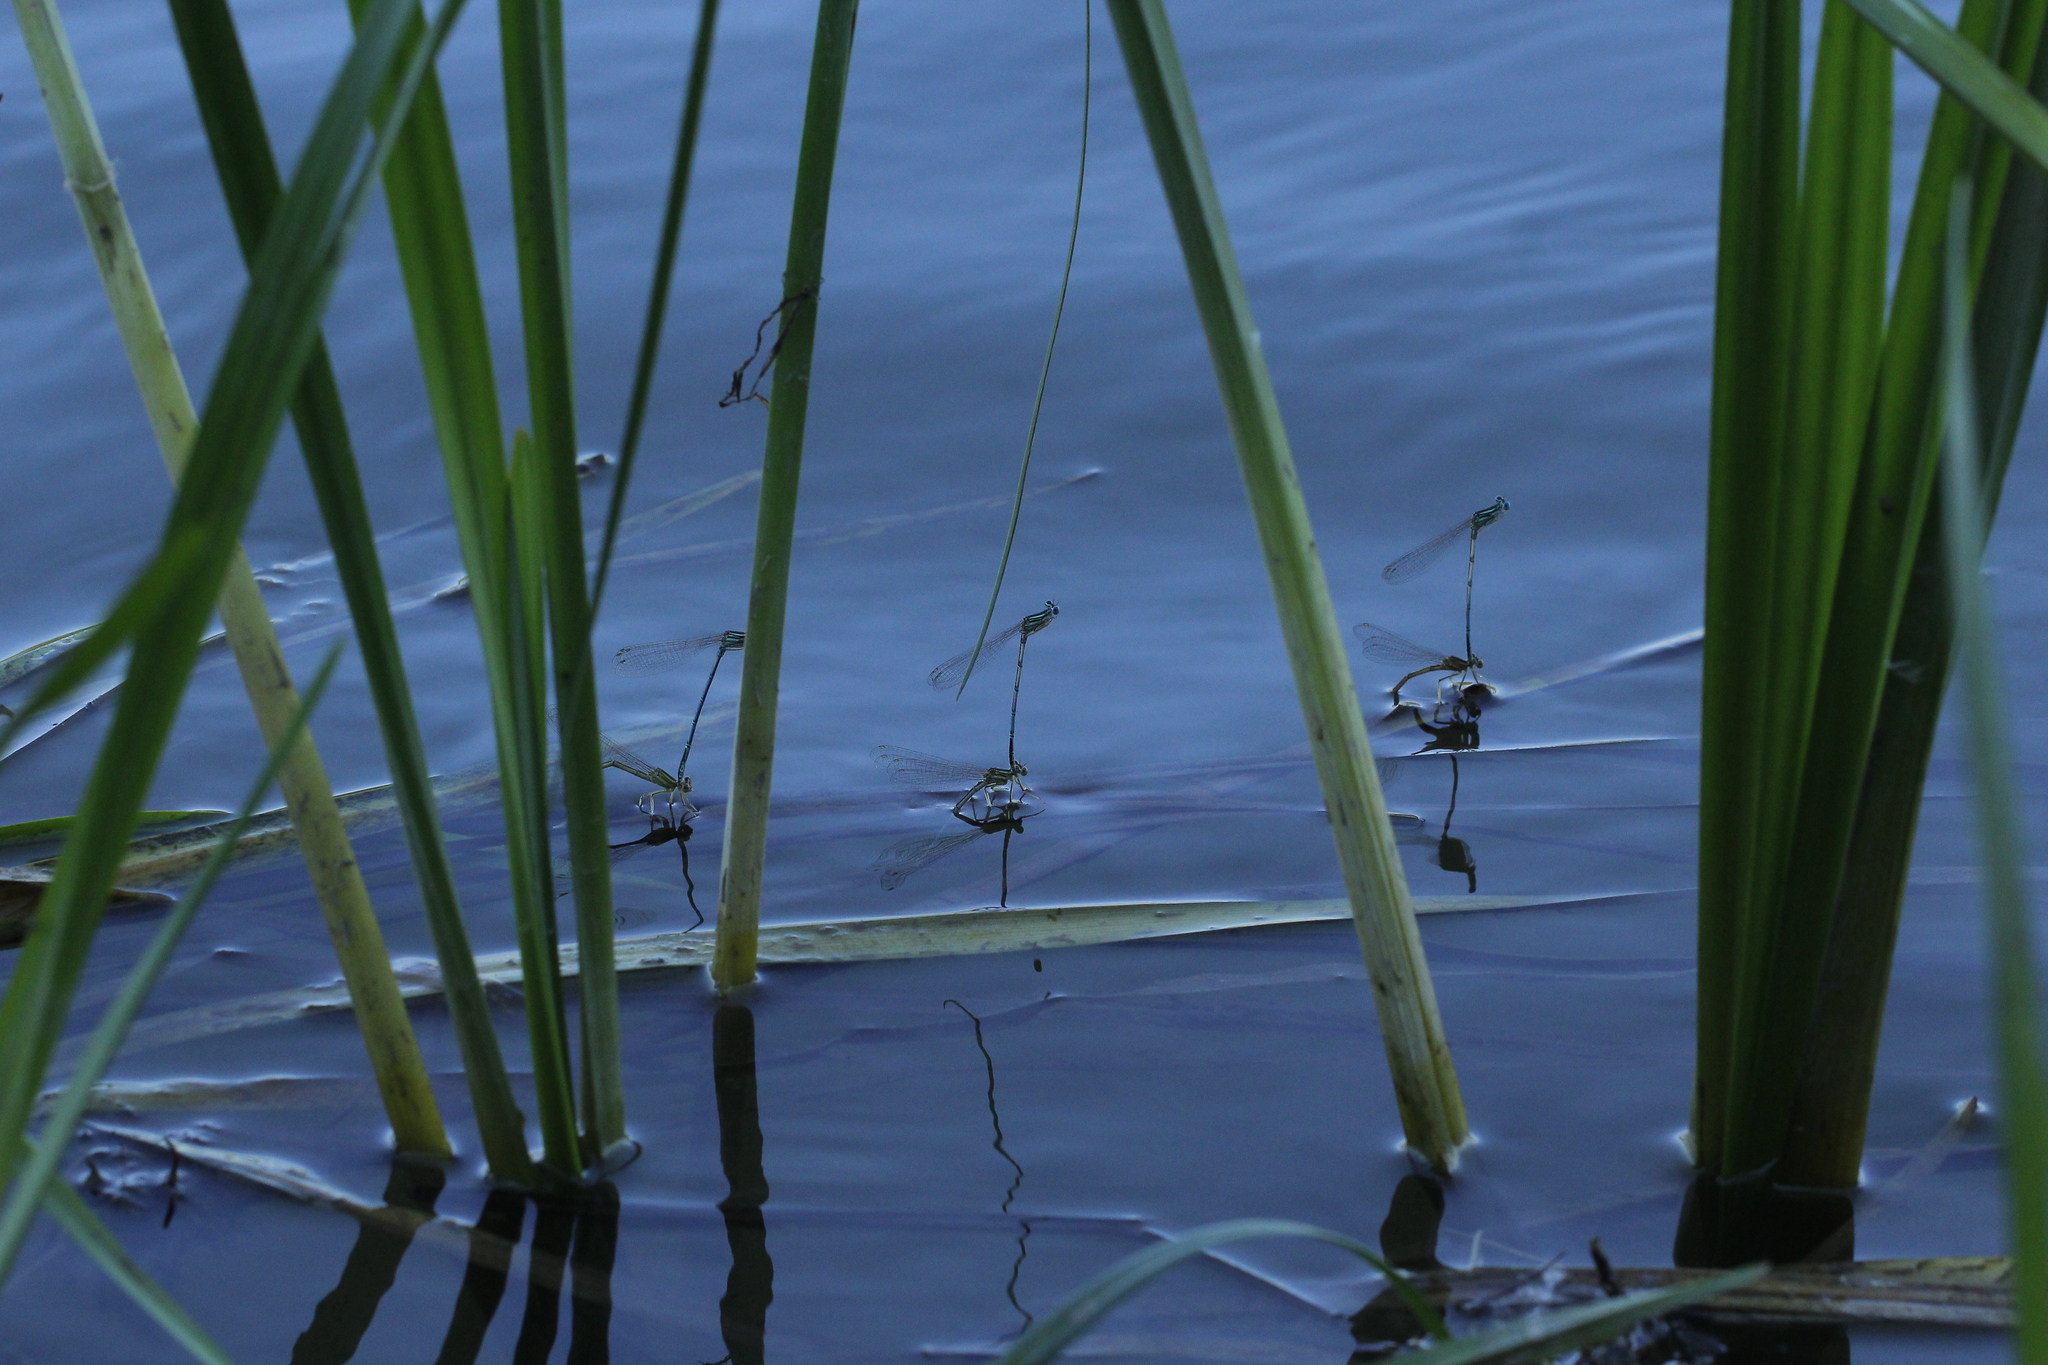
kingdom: Animalia
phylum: Arthropoda
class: Insecta
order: Odonata
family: Platycnemididae
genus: Platycnemis
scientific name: Platycnemis pennipes
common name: White-legged damselfly
